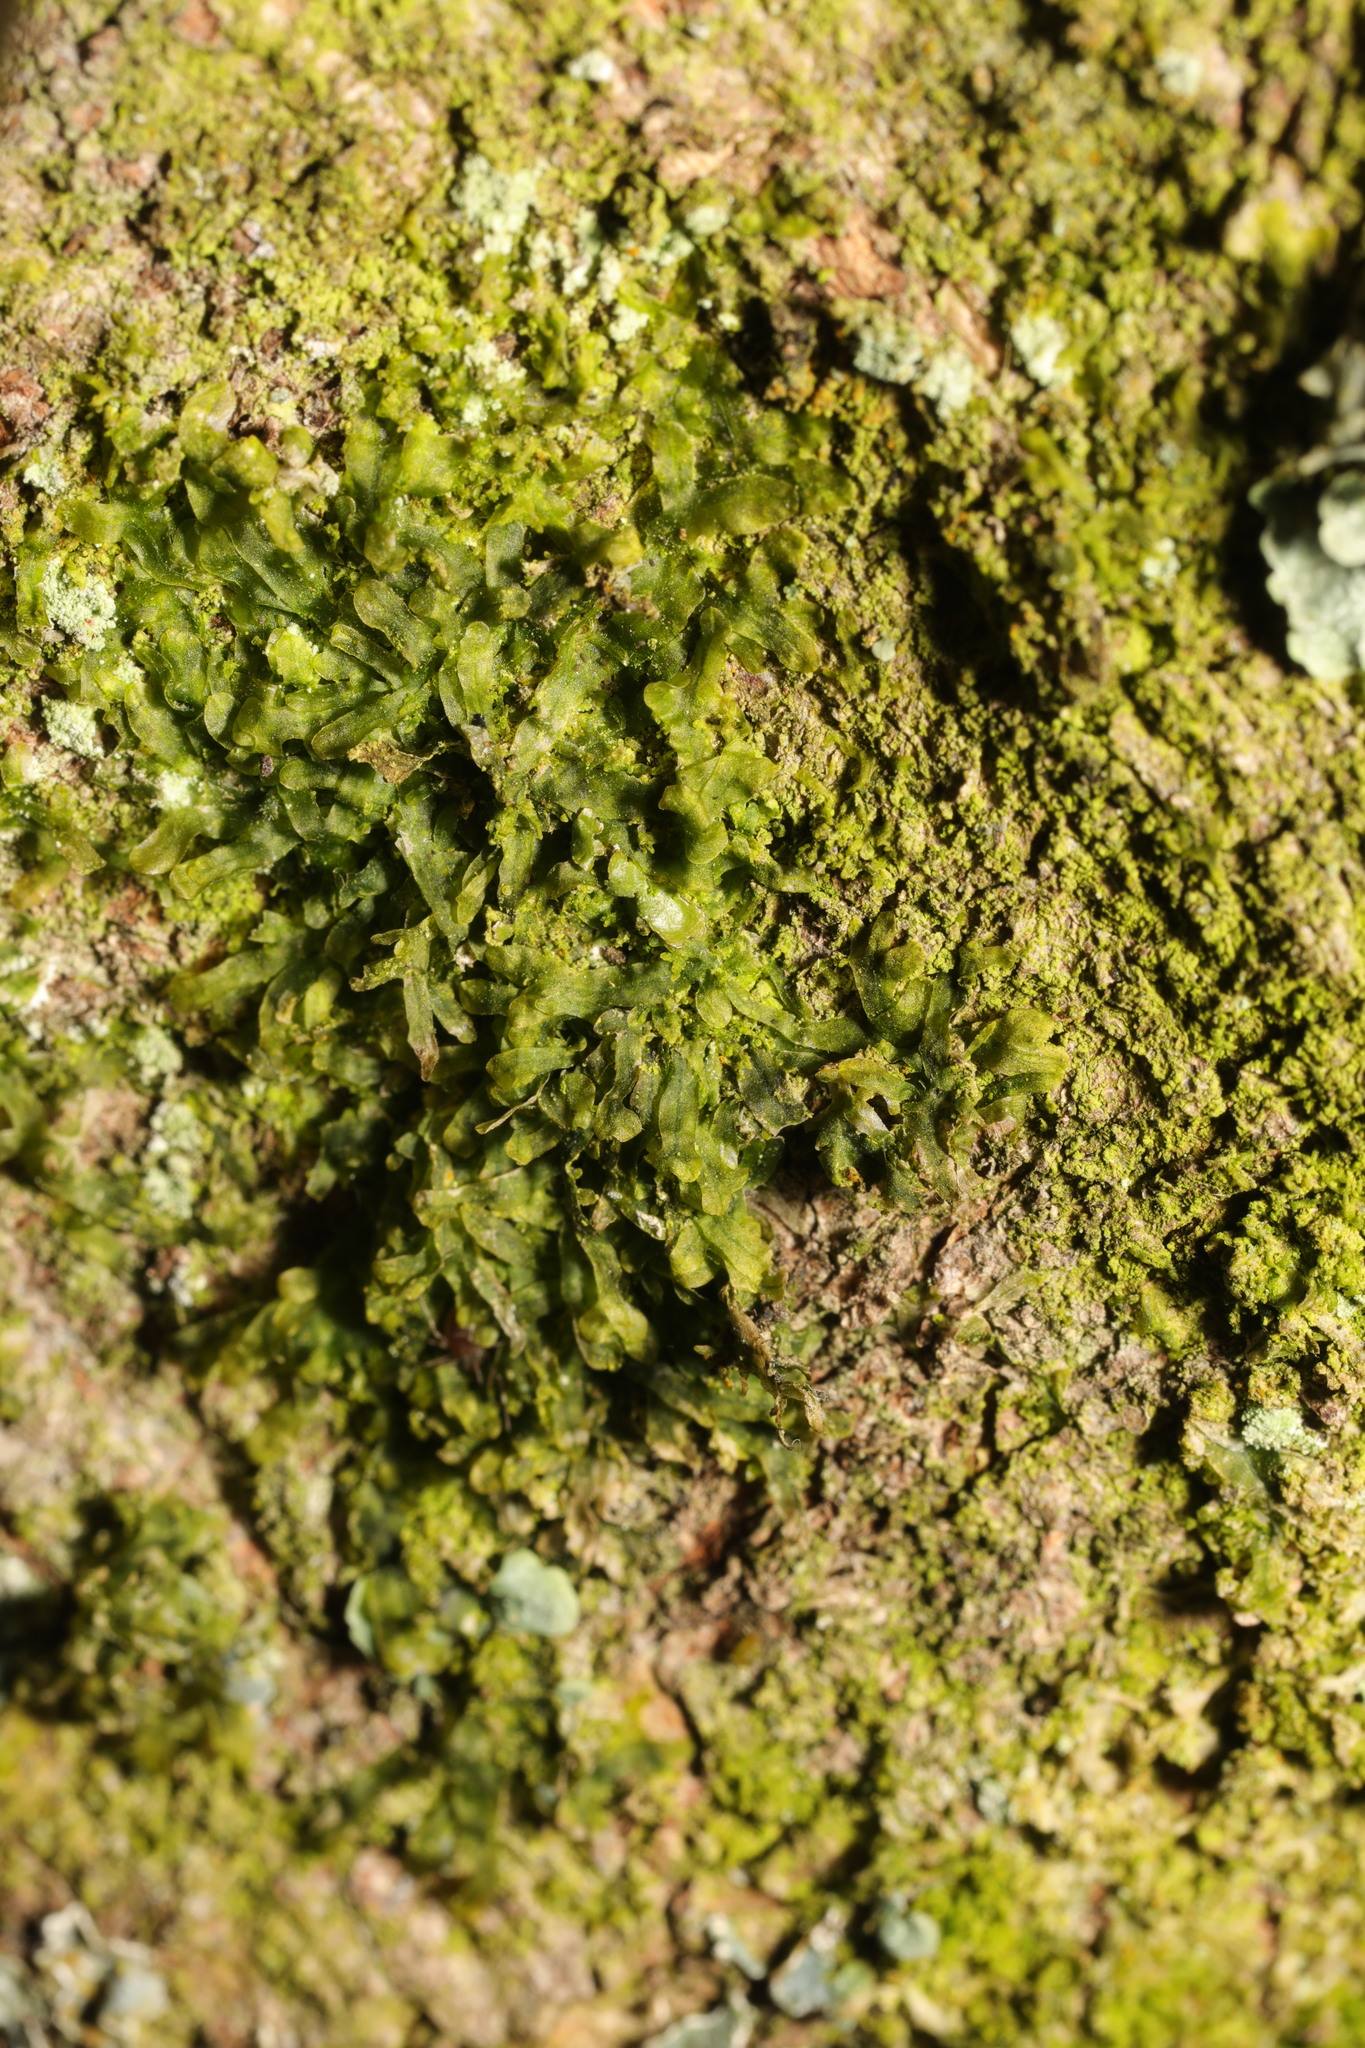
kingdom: Plantae
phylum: Marchantiophyta
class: Jungermanniopsida
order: Metzgeriales
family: Metzgeriaceae
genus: Metzgeria
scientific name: Metzgeria furcata
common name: Forked veilwort
